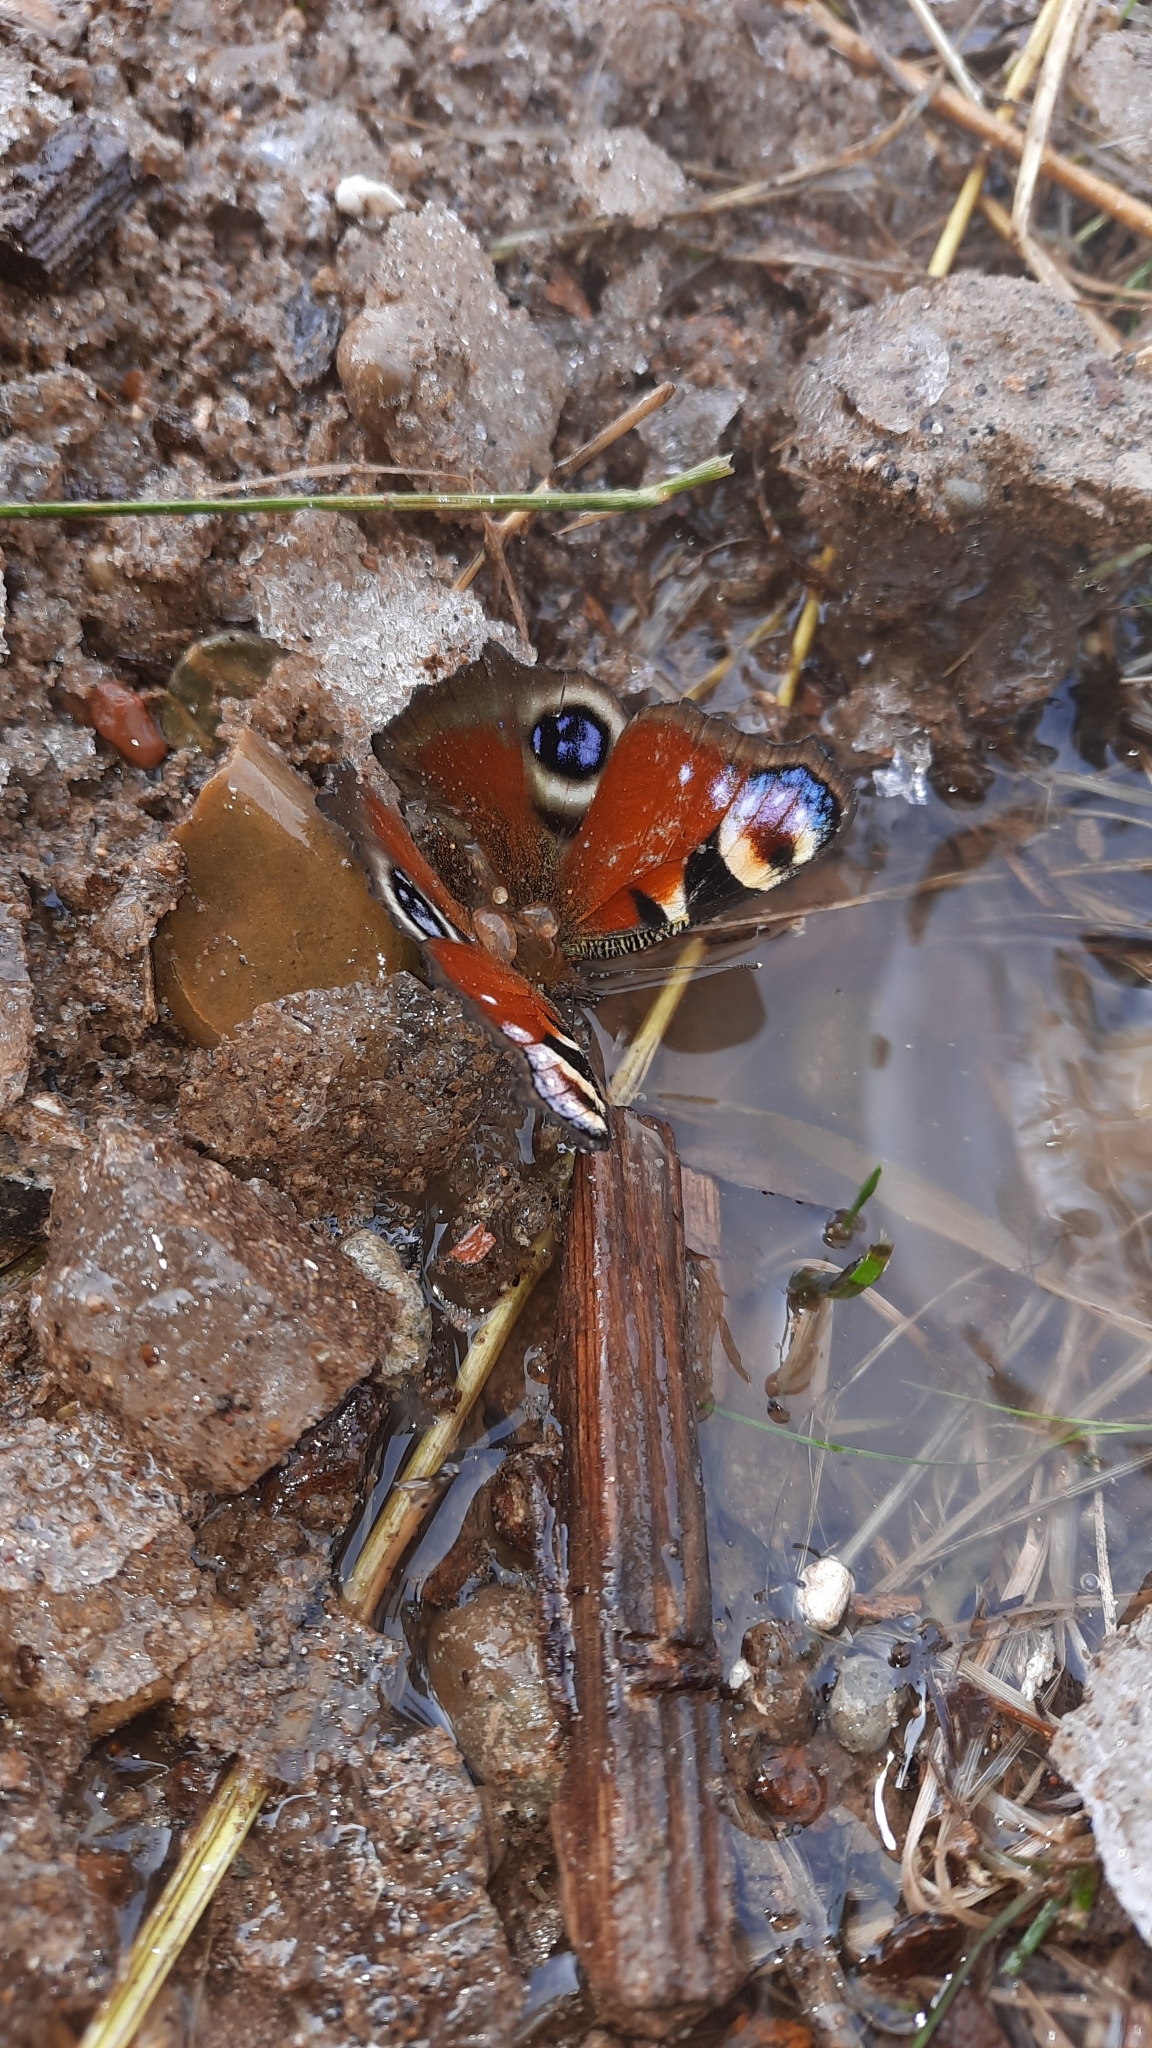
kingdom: Animalia
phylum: Arthropoda
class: Insecta
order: Lepidoptera
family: Nymphalidae
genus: Aglais
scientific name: Aglais io
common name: Peacock
